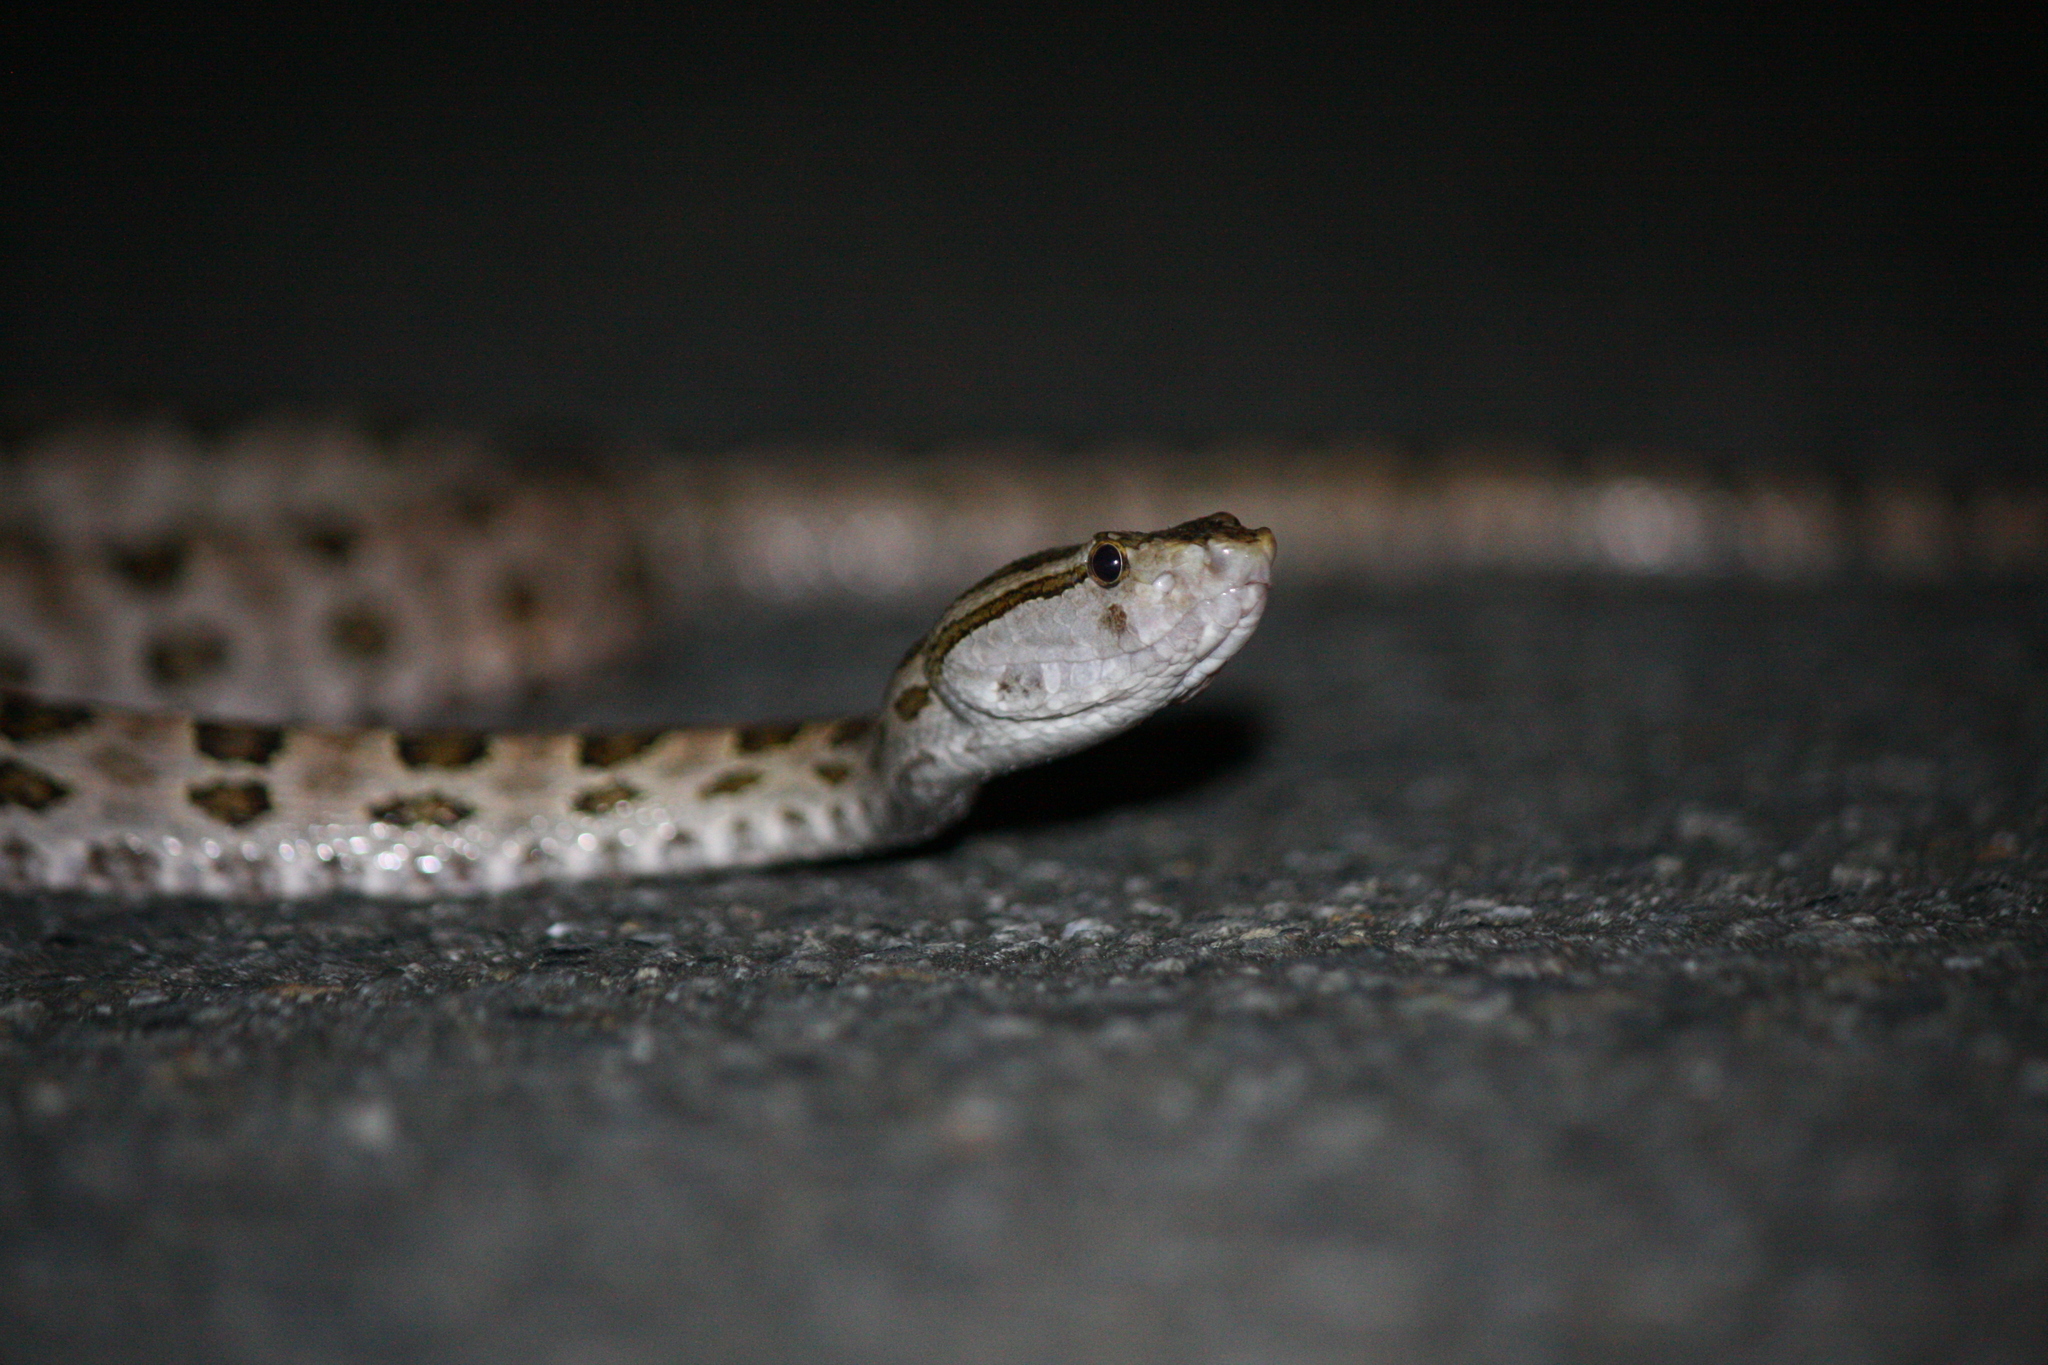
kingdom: Animalia
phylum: Chordata
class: Squamata
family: Viperidae
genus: Protobothrops
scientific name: Protobothrops mucrosquamatus
